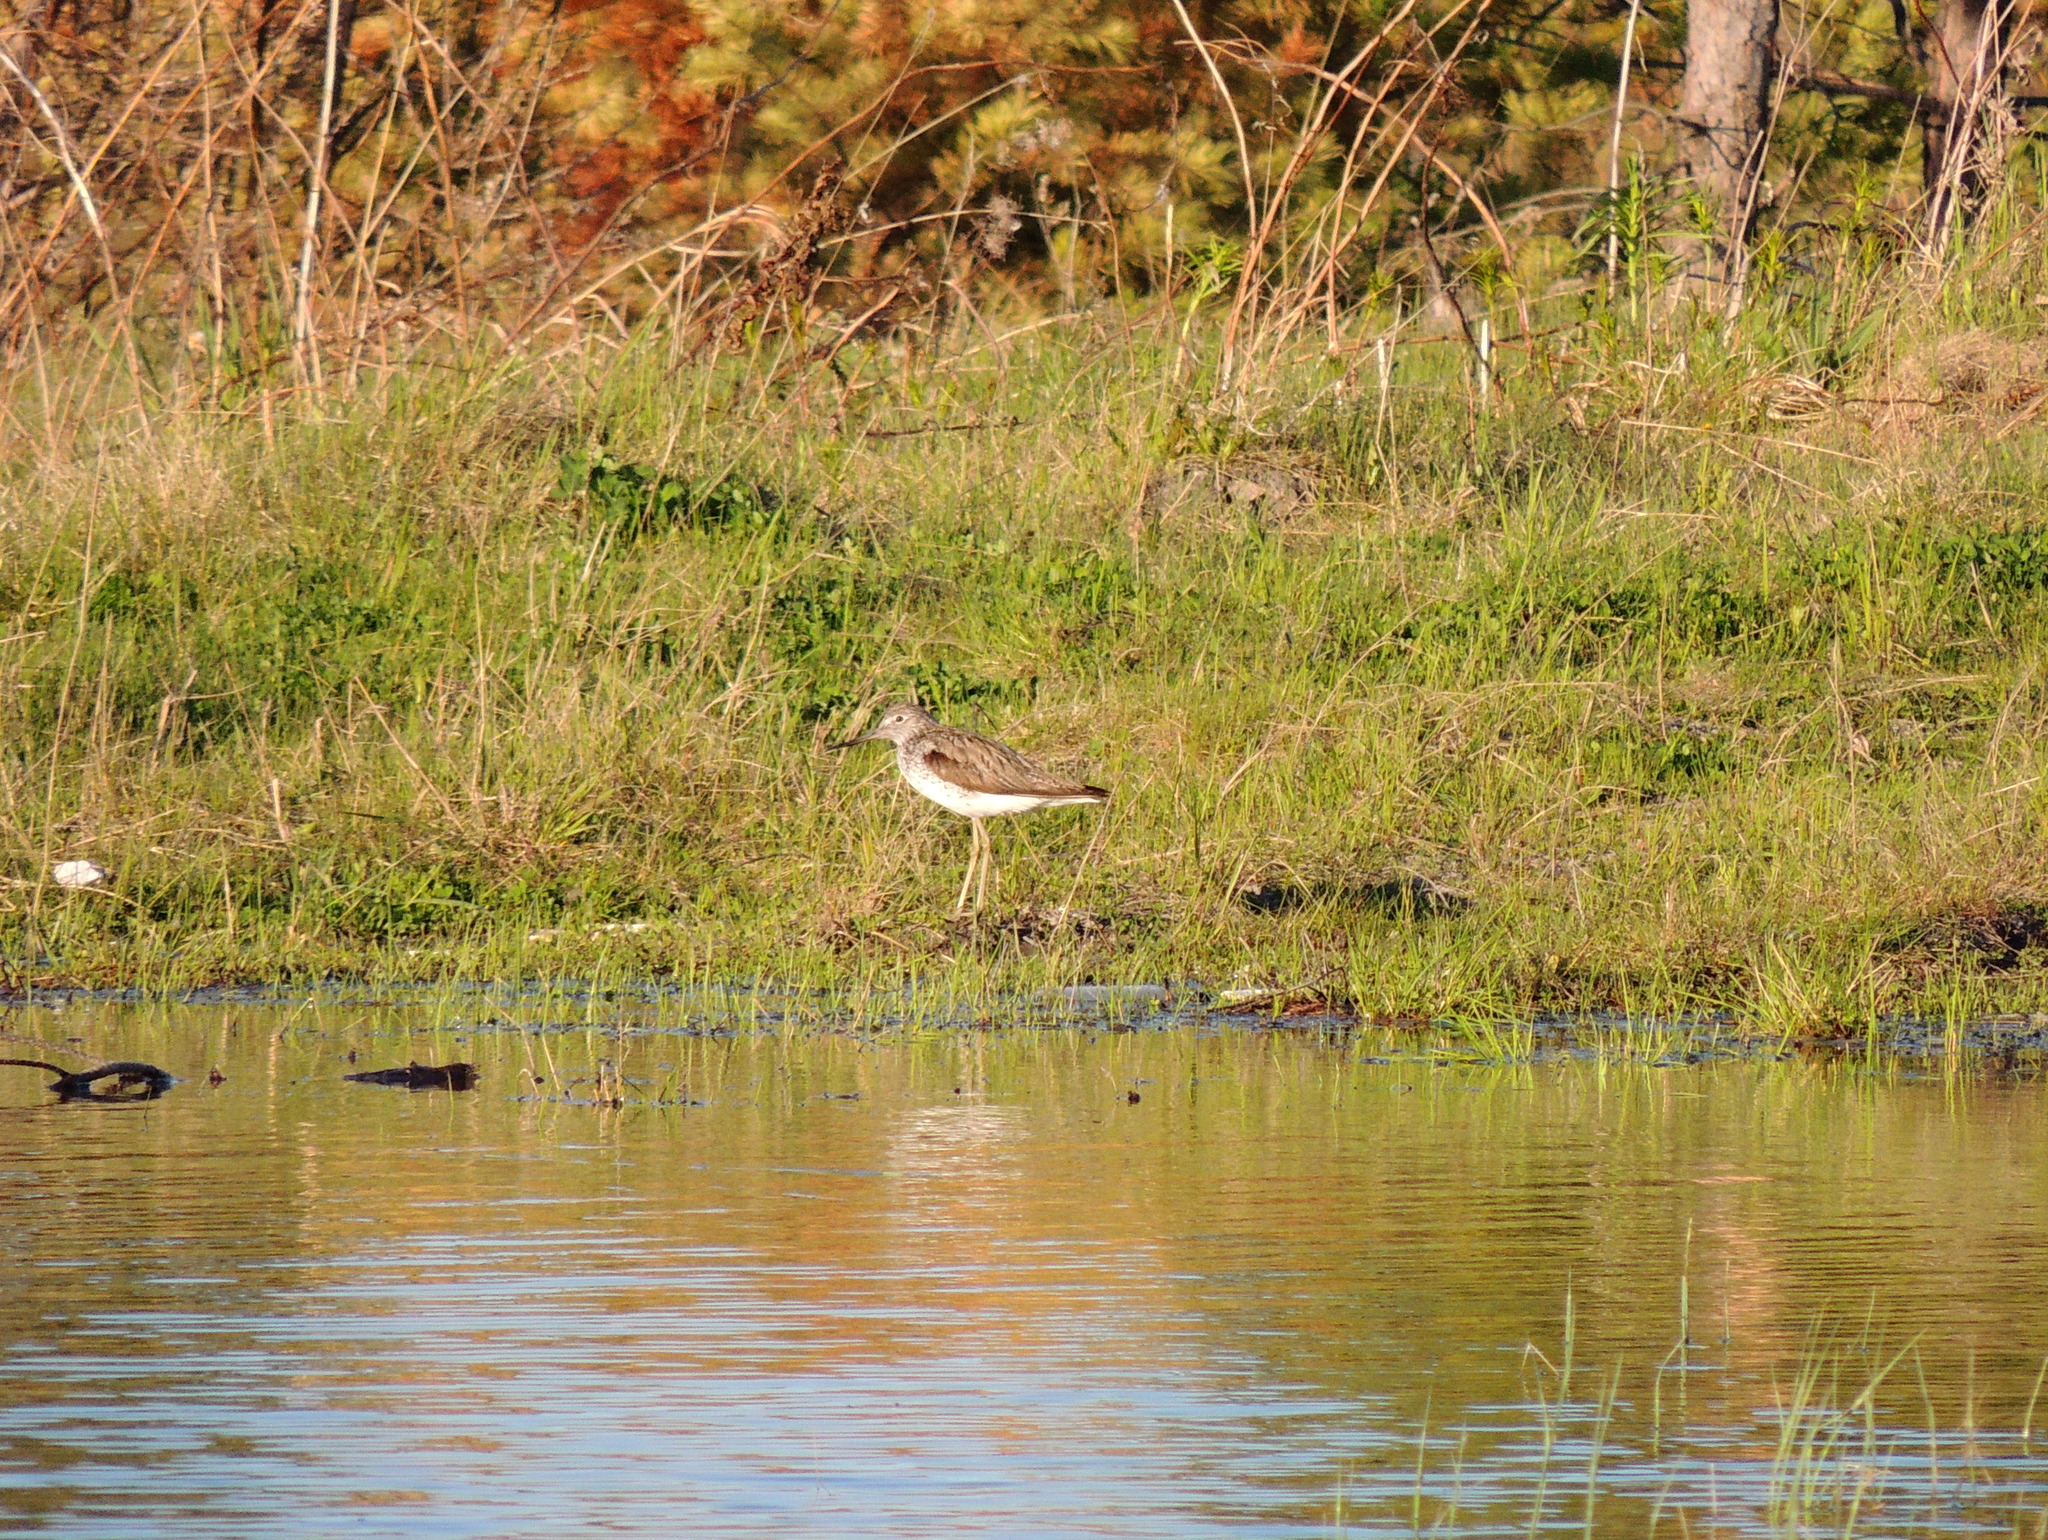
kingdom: Animalia
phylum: Chordata
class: Aves
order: Charadriiformes
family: Scolopacidae
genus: Tringa
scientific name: Tringa nebularia
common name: Common greenshank
